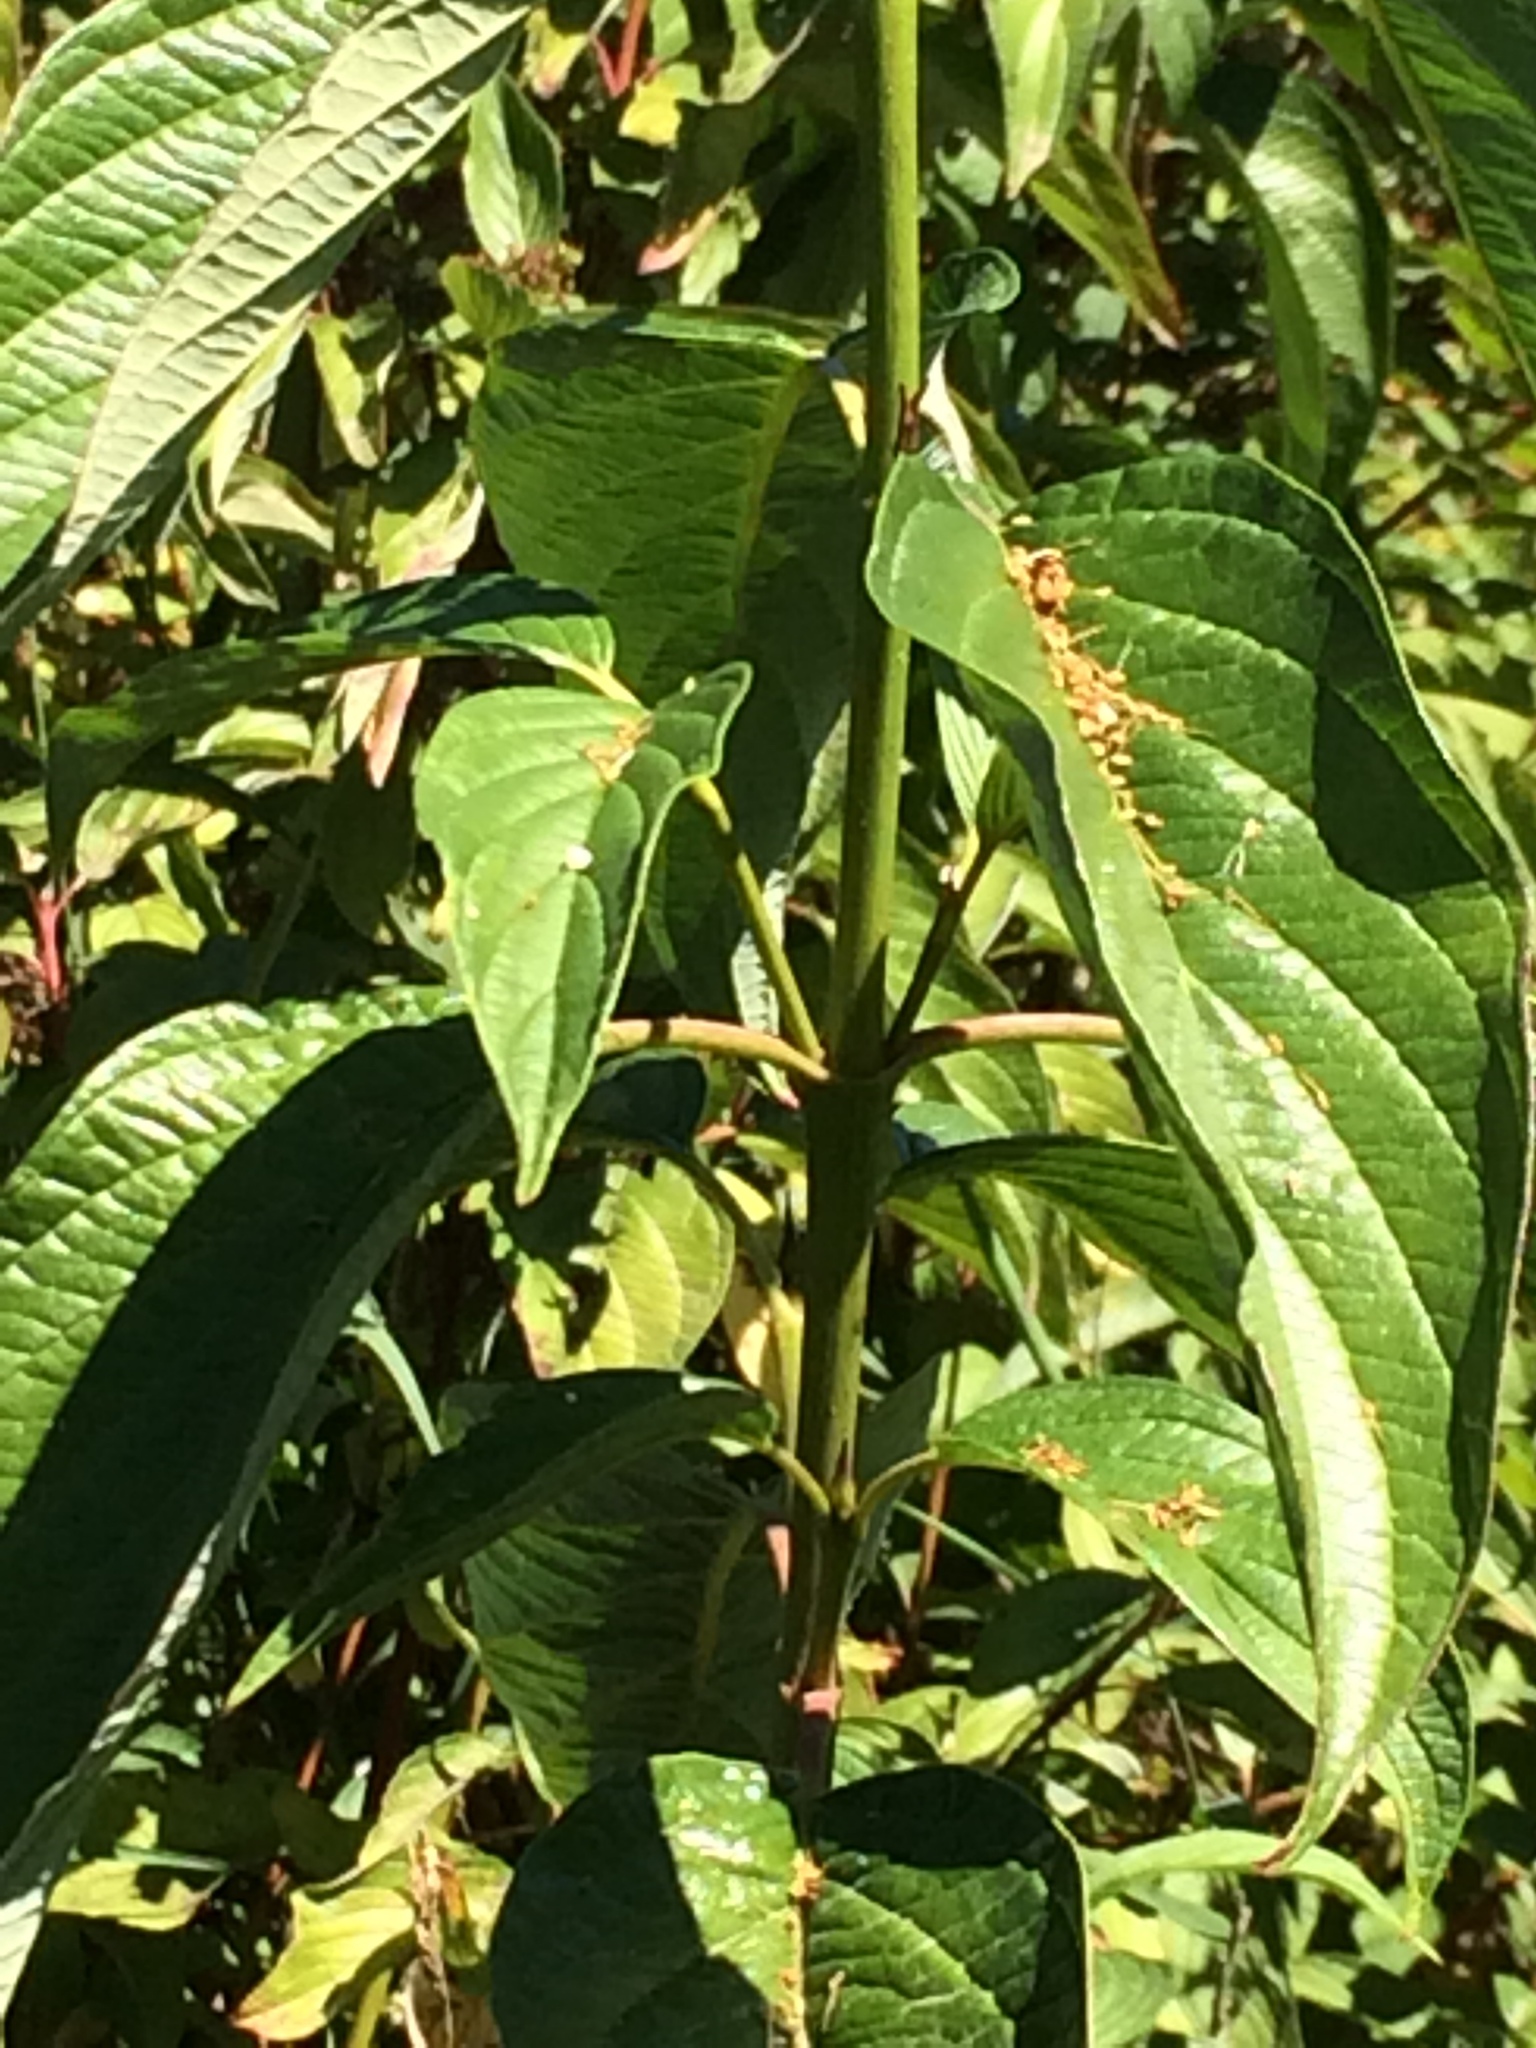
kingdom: Plantae
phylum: Tracheophyta
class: Magnoliopsida
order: Cornales
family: Cornaceae
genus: Cornus
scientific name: Cornus sericea
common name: Red-osier dogwood
